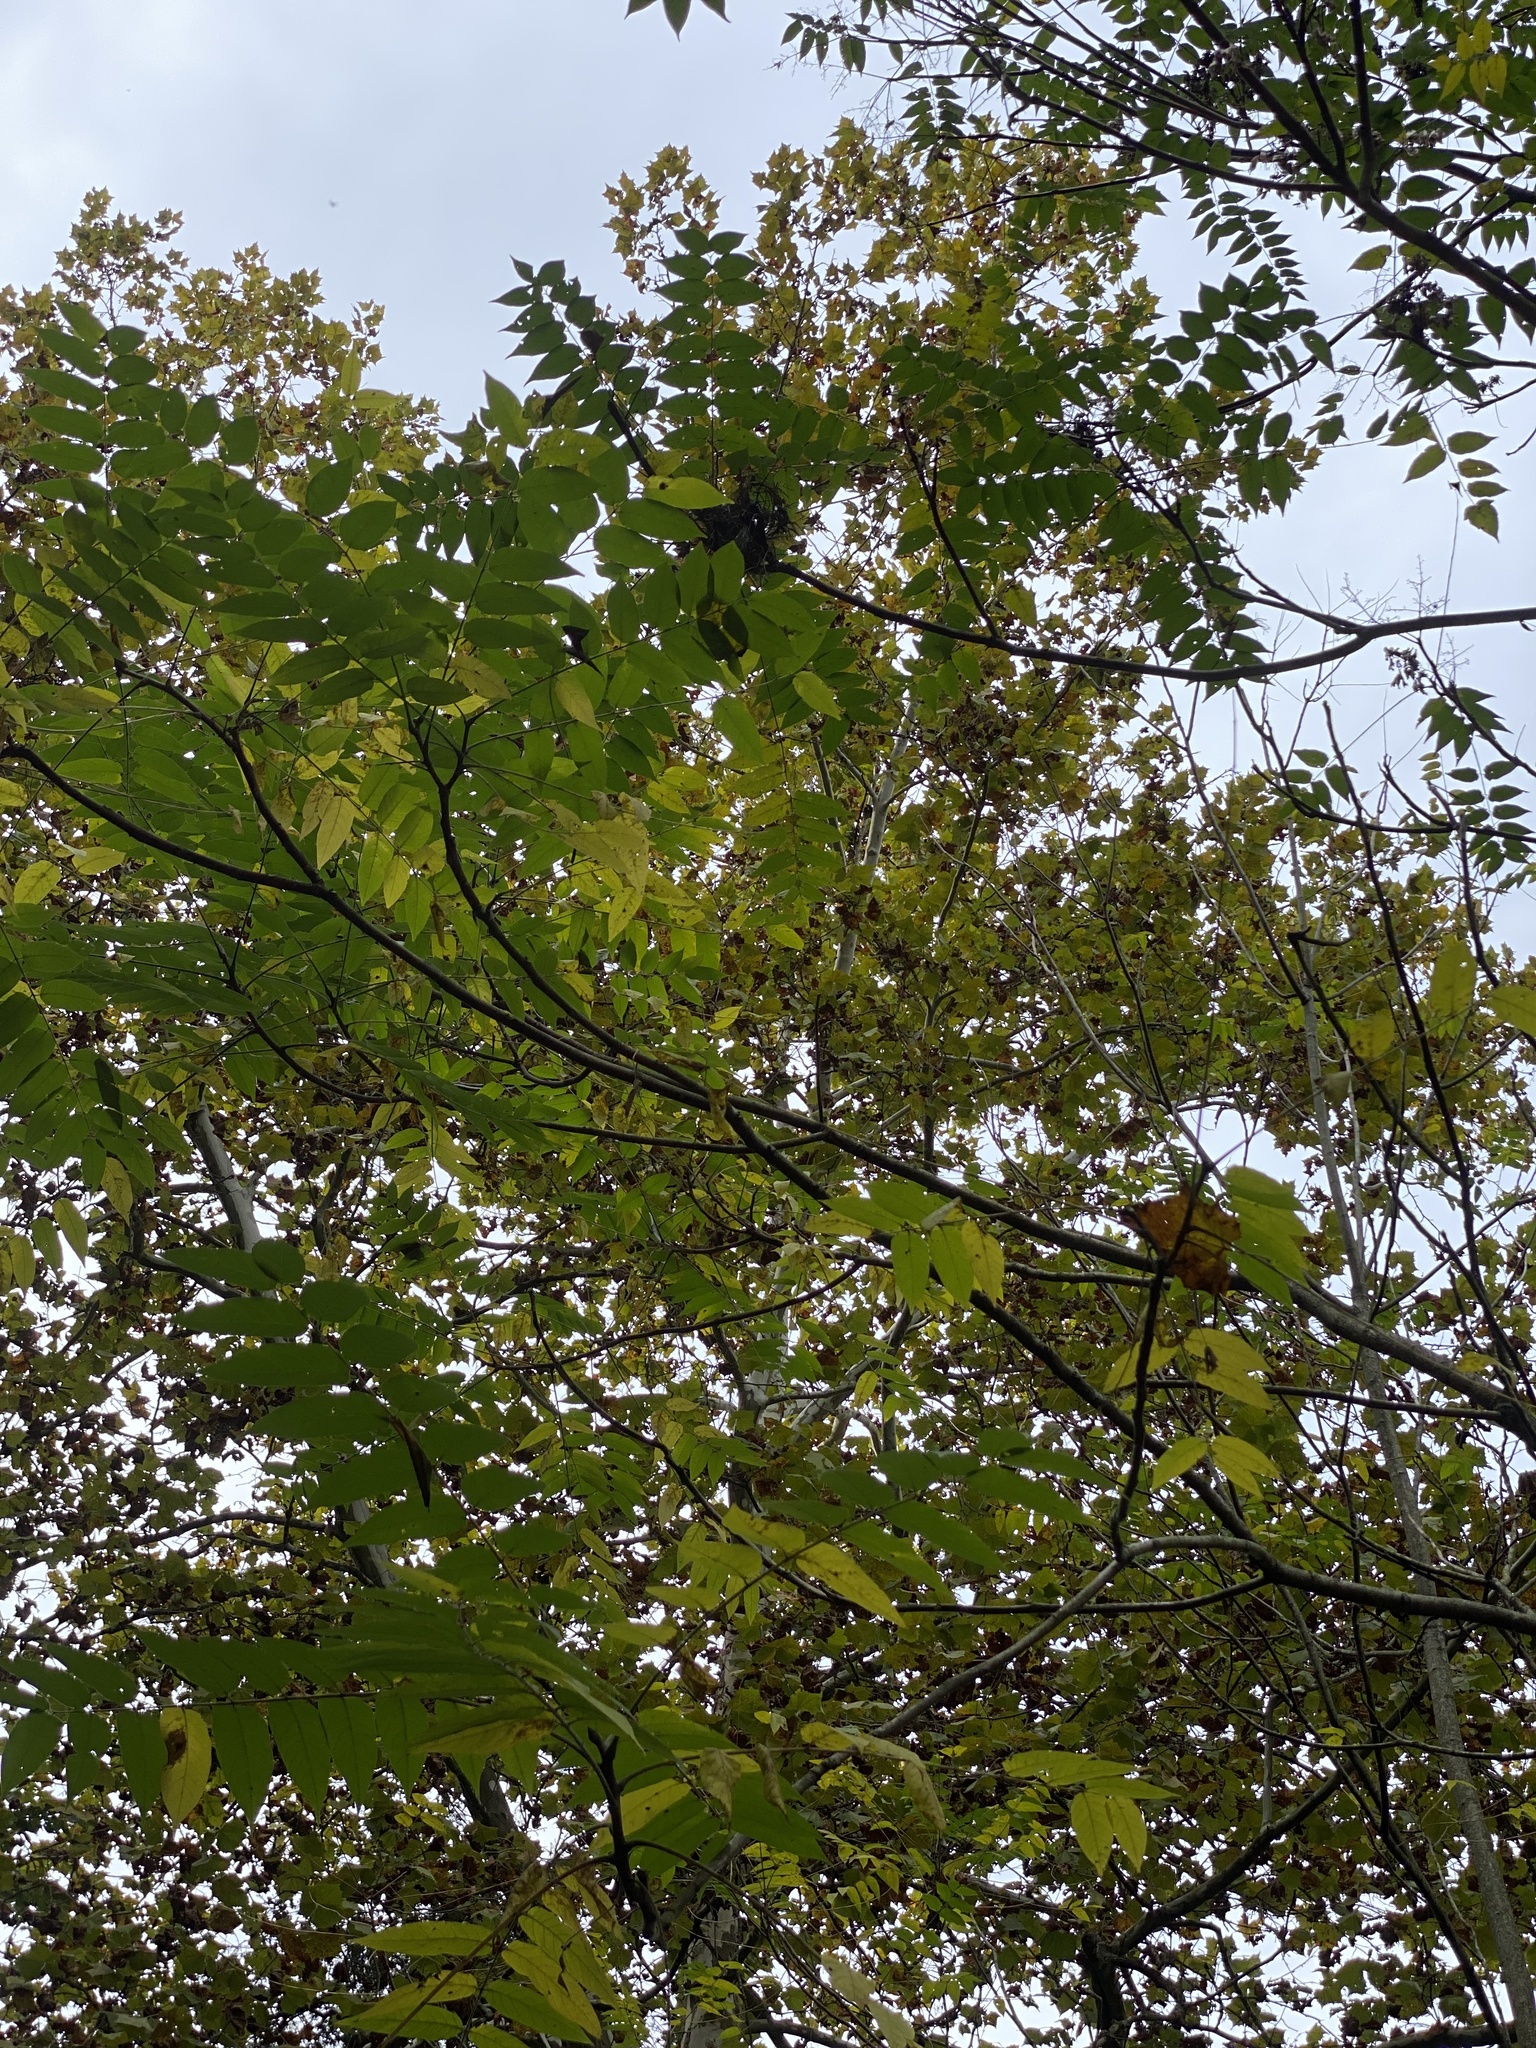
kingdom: Plantae
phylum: Tracheophyta
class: Magnoliopsida
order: Sapindales
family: Simaroubaceae
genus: Ailanthus
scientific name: Ailanthus altissima
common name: Tree-of-heaven
